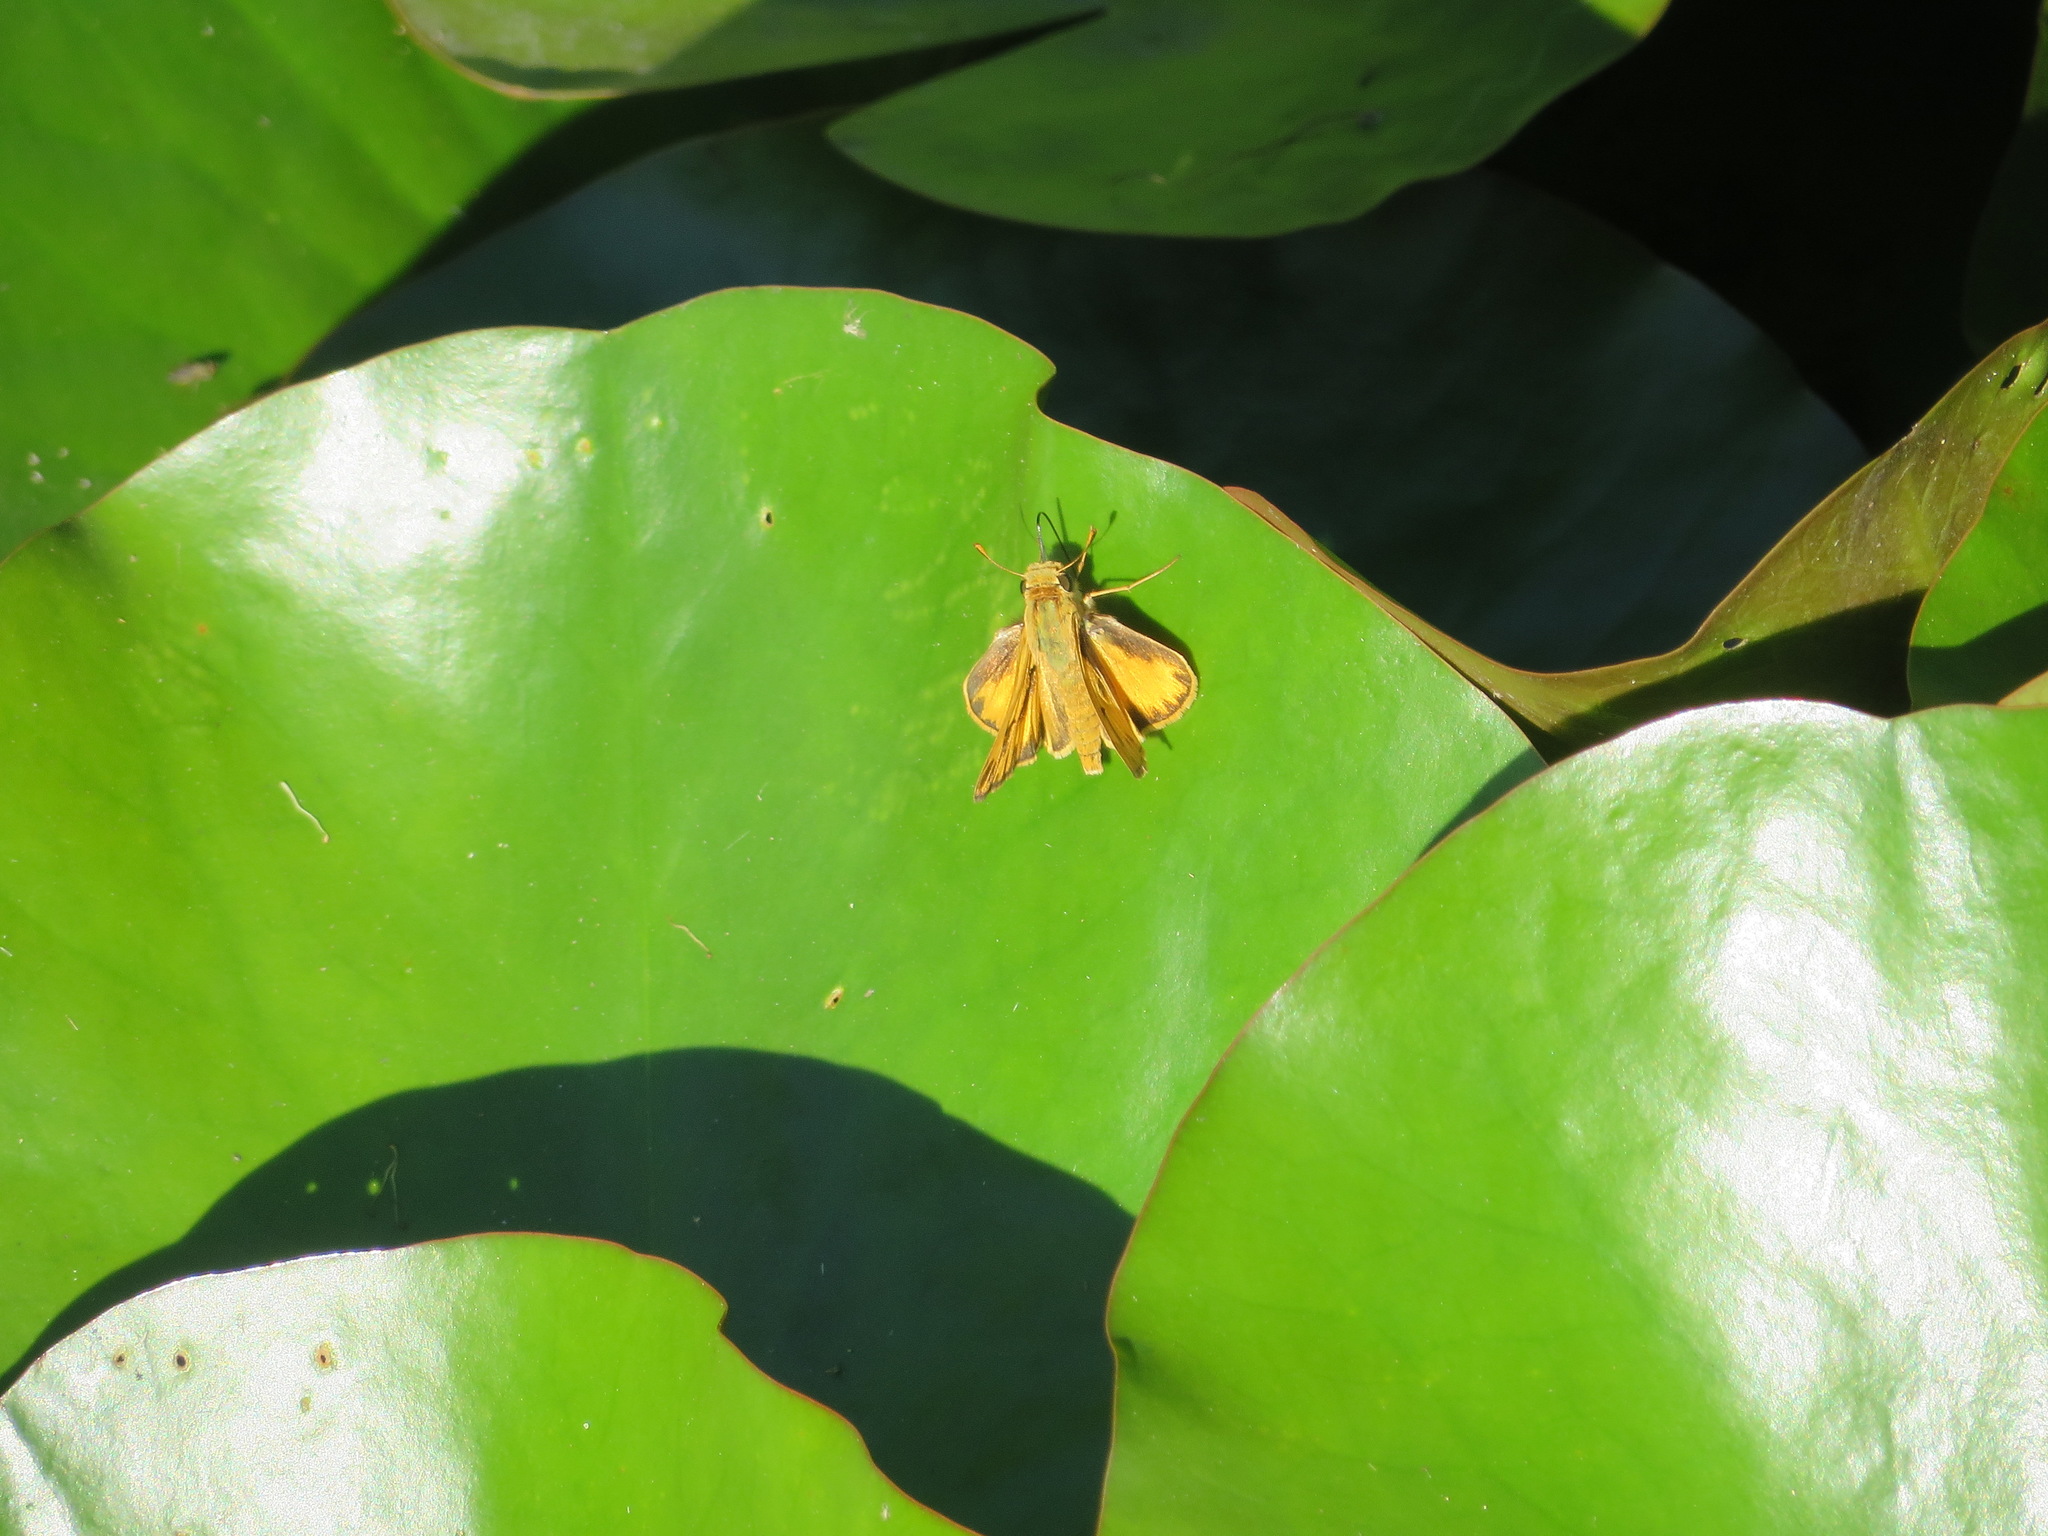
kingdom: Animalia
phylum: Arthropoda
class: Insecta
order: Lepidoptera
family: Hesperiidae
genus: Hylephila
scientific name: Hylephila phyleus
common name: Fiery skipper
